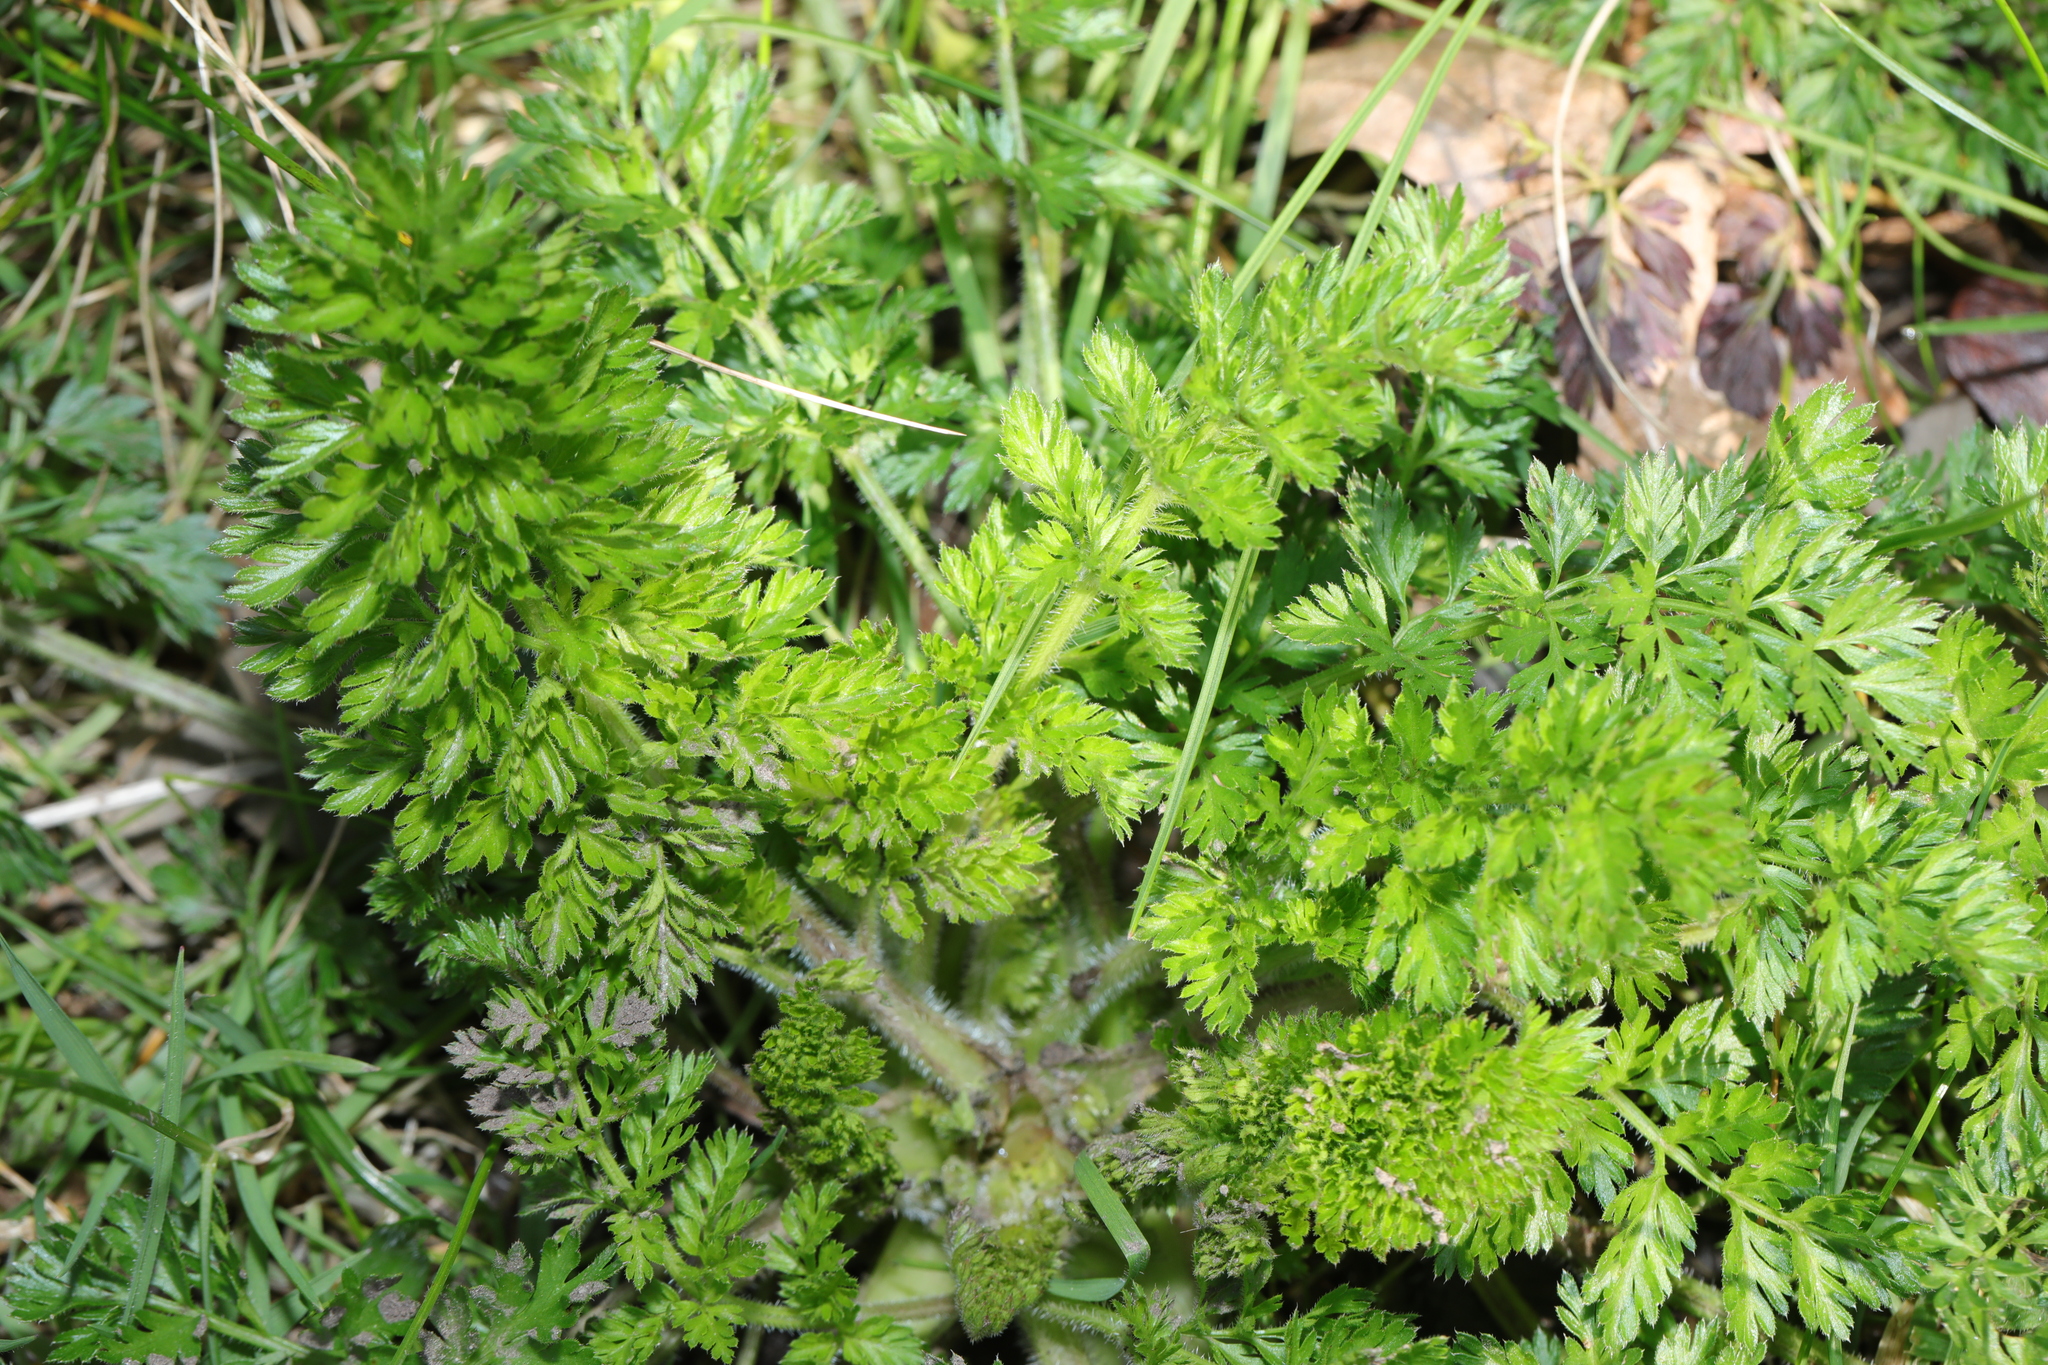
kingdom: Plantae
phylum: Tracheophyta
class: Magnoliopsida
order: Apiales
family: Apiaceae
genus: Daucus
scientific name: Daucus carota
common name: Wild carrot
